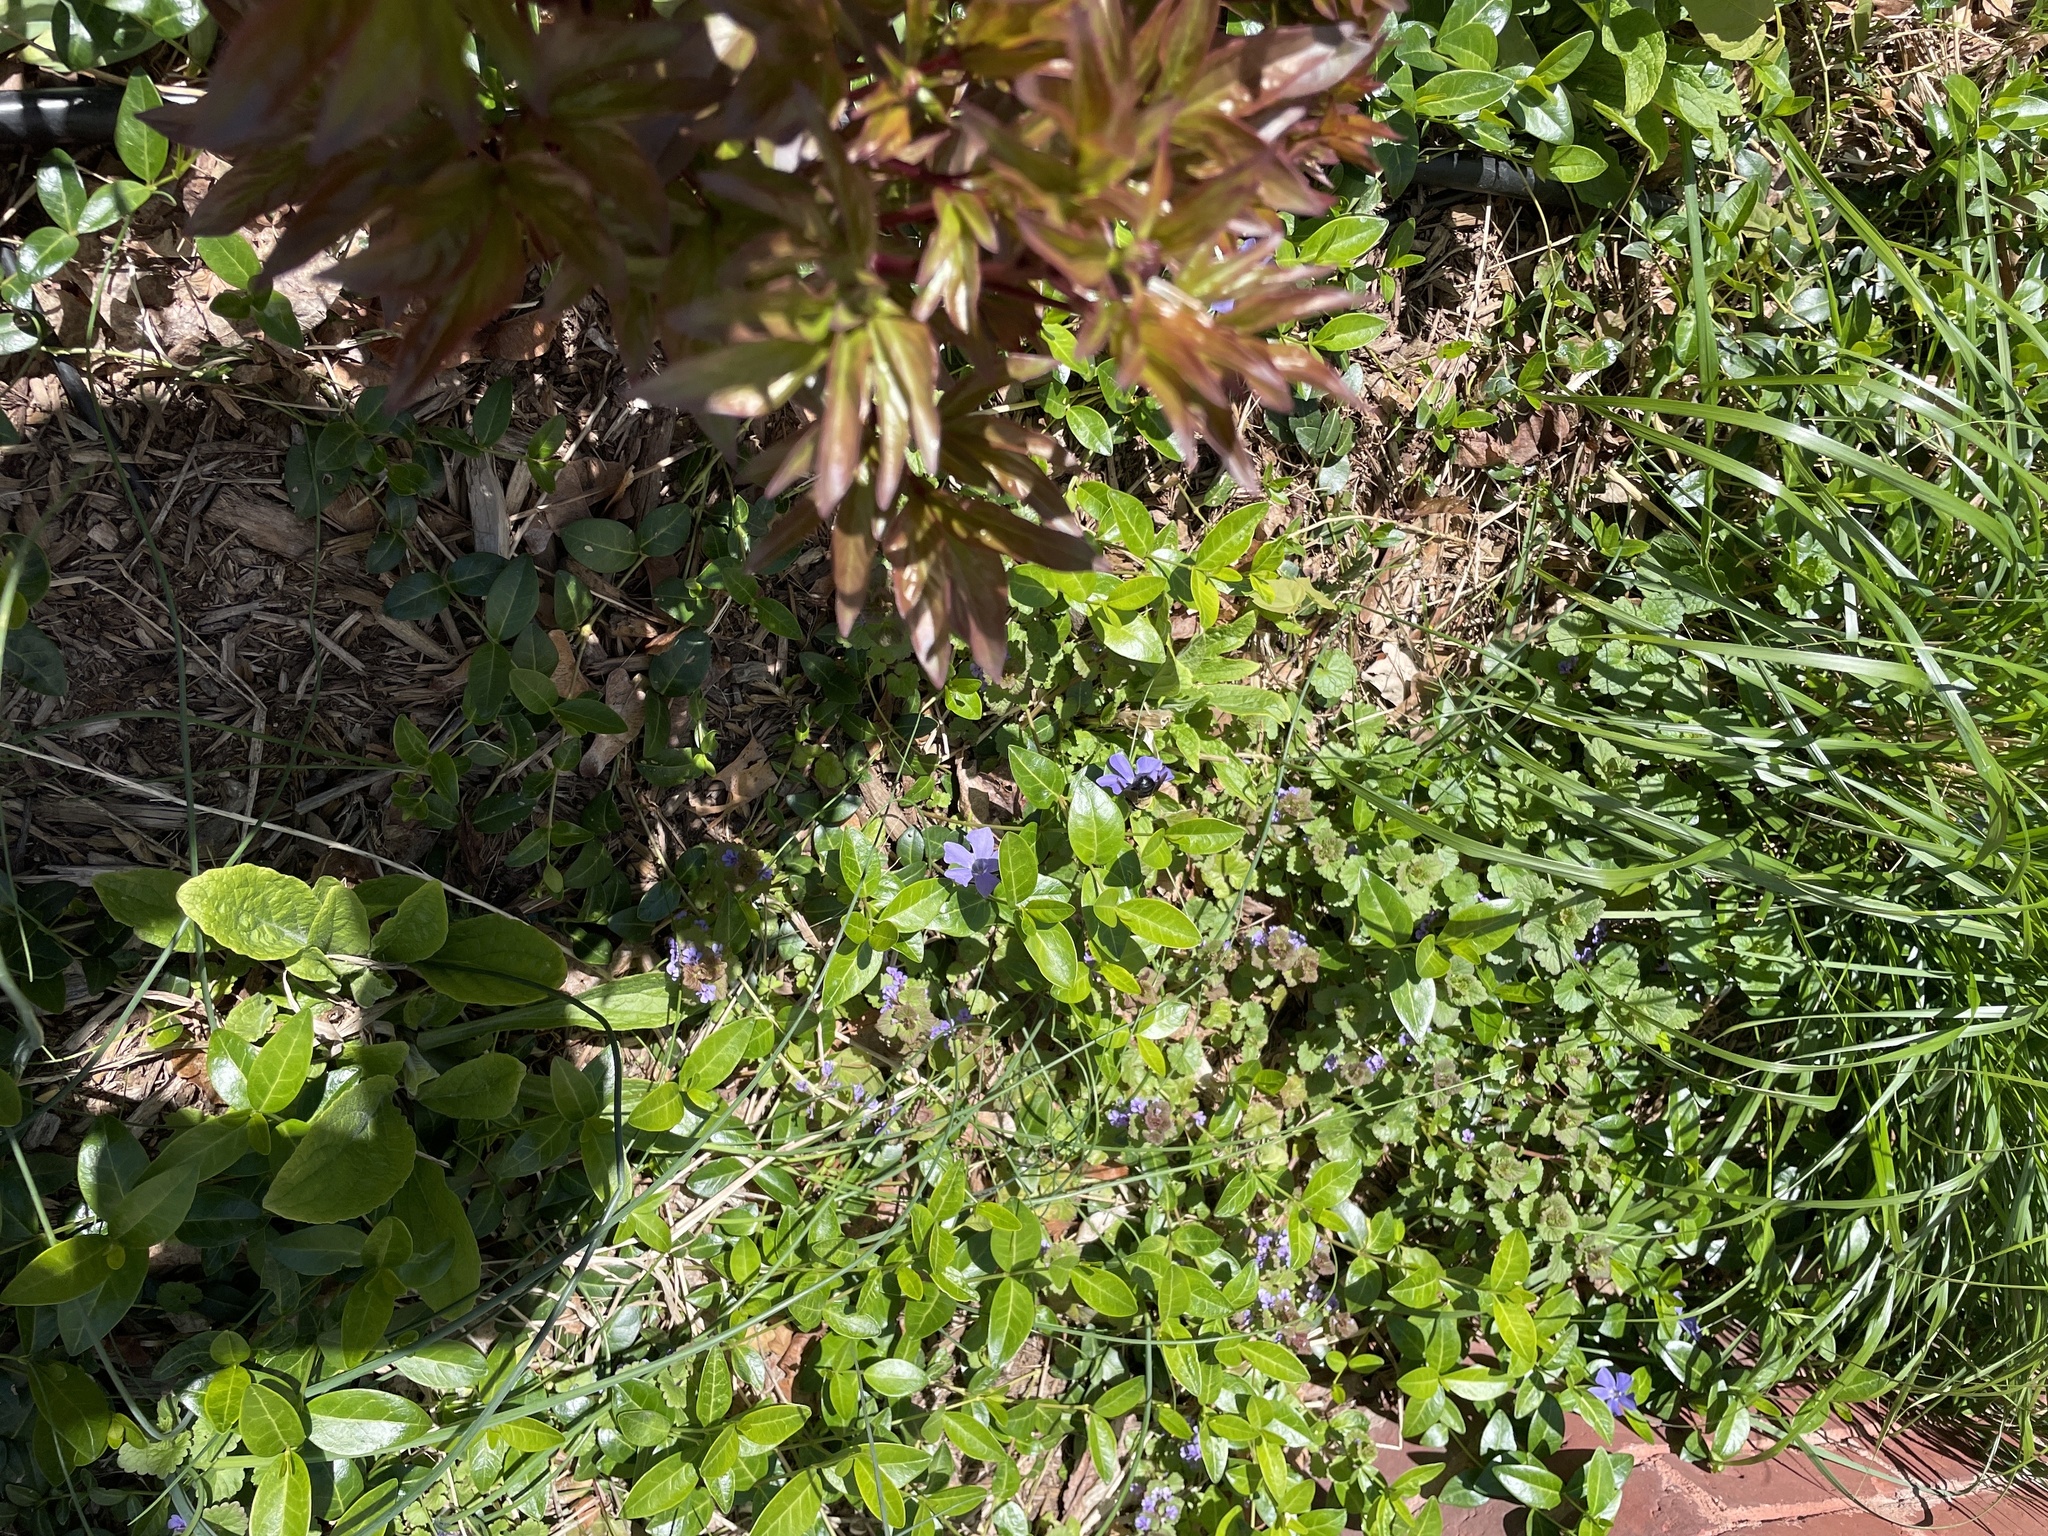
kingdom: Animalia
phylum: Arthropoda
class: Insecta
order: Hymenoptera
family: Apidae
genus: Xylocopa
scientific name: Xylocopa virginica
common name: Carpenter bee
